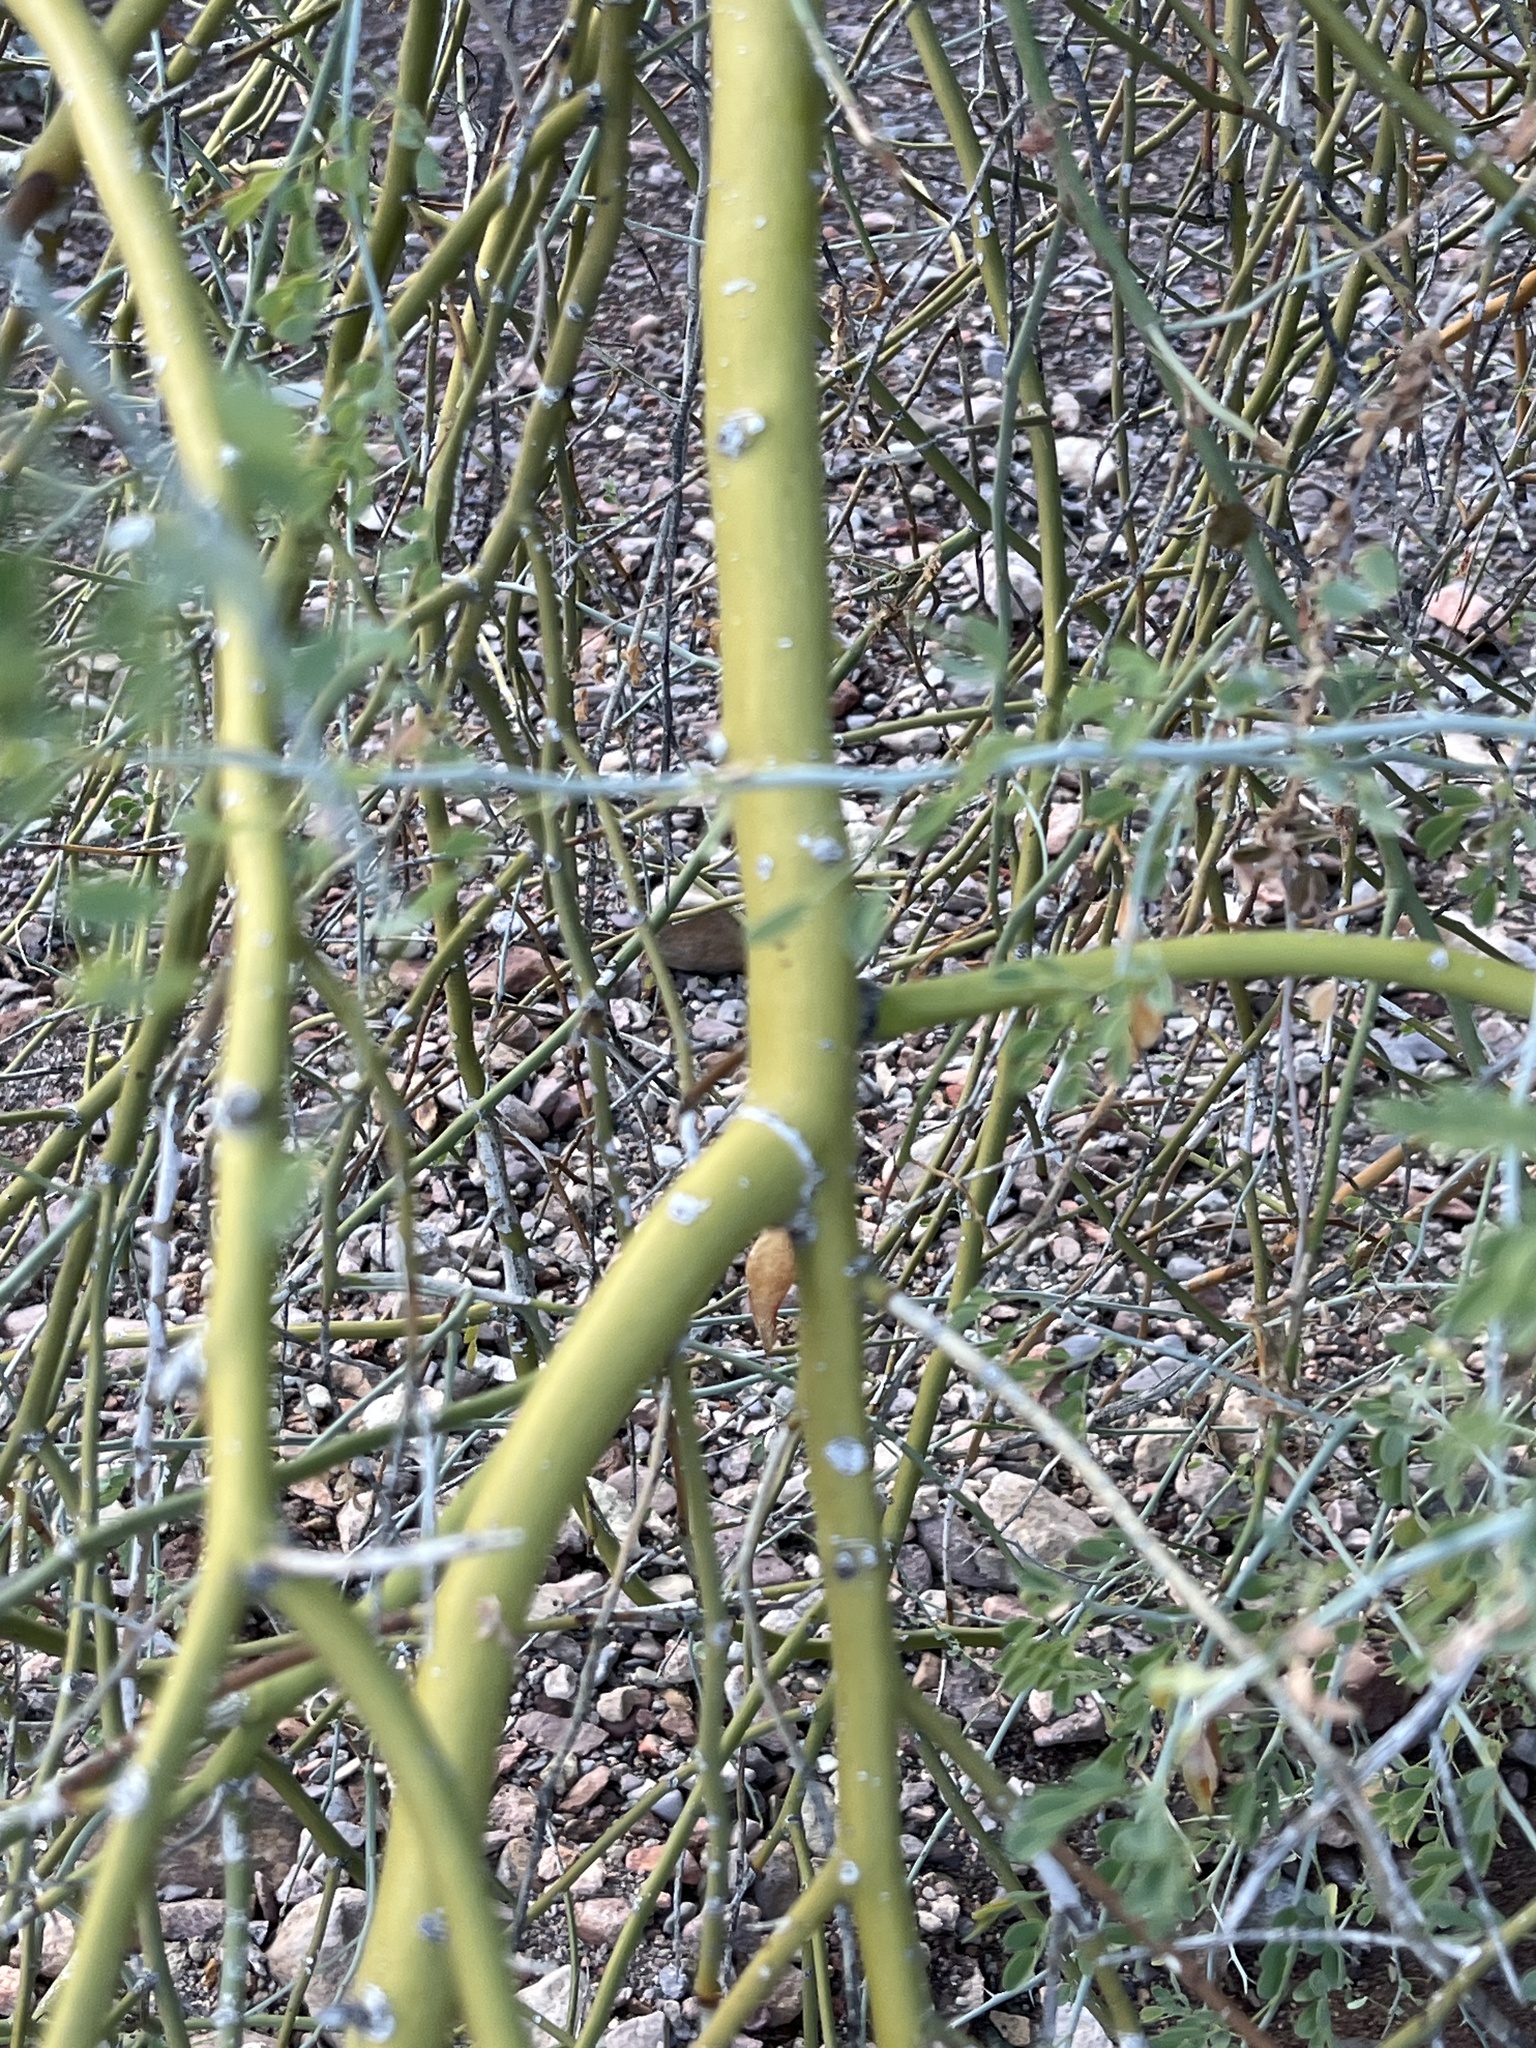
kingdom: Plantae
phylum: Tracheophyta
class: Magnoliopsida
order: Fabales
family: Fabaceae
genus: Parkinsonia
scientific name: Parkinsonia florida
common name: Blue paloverde
